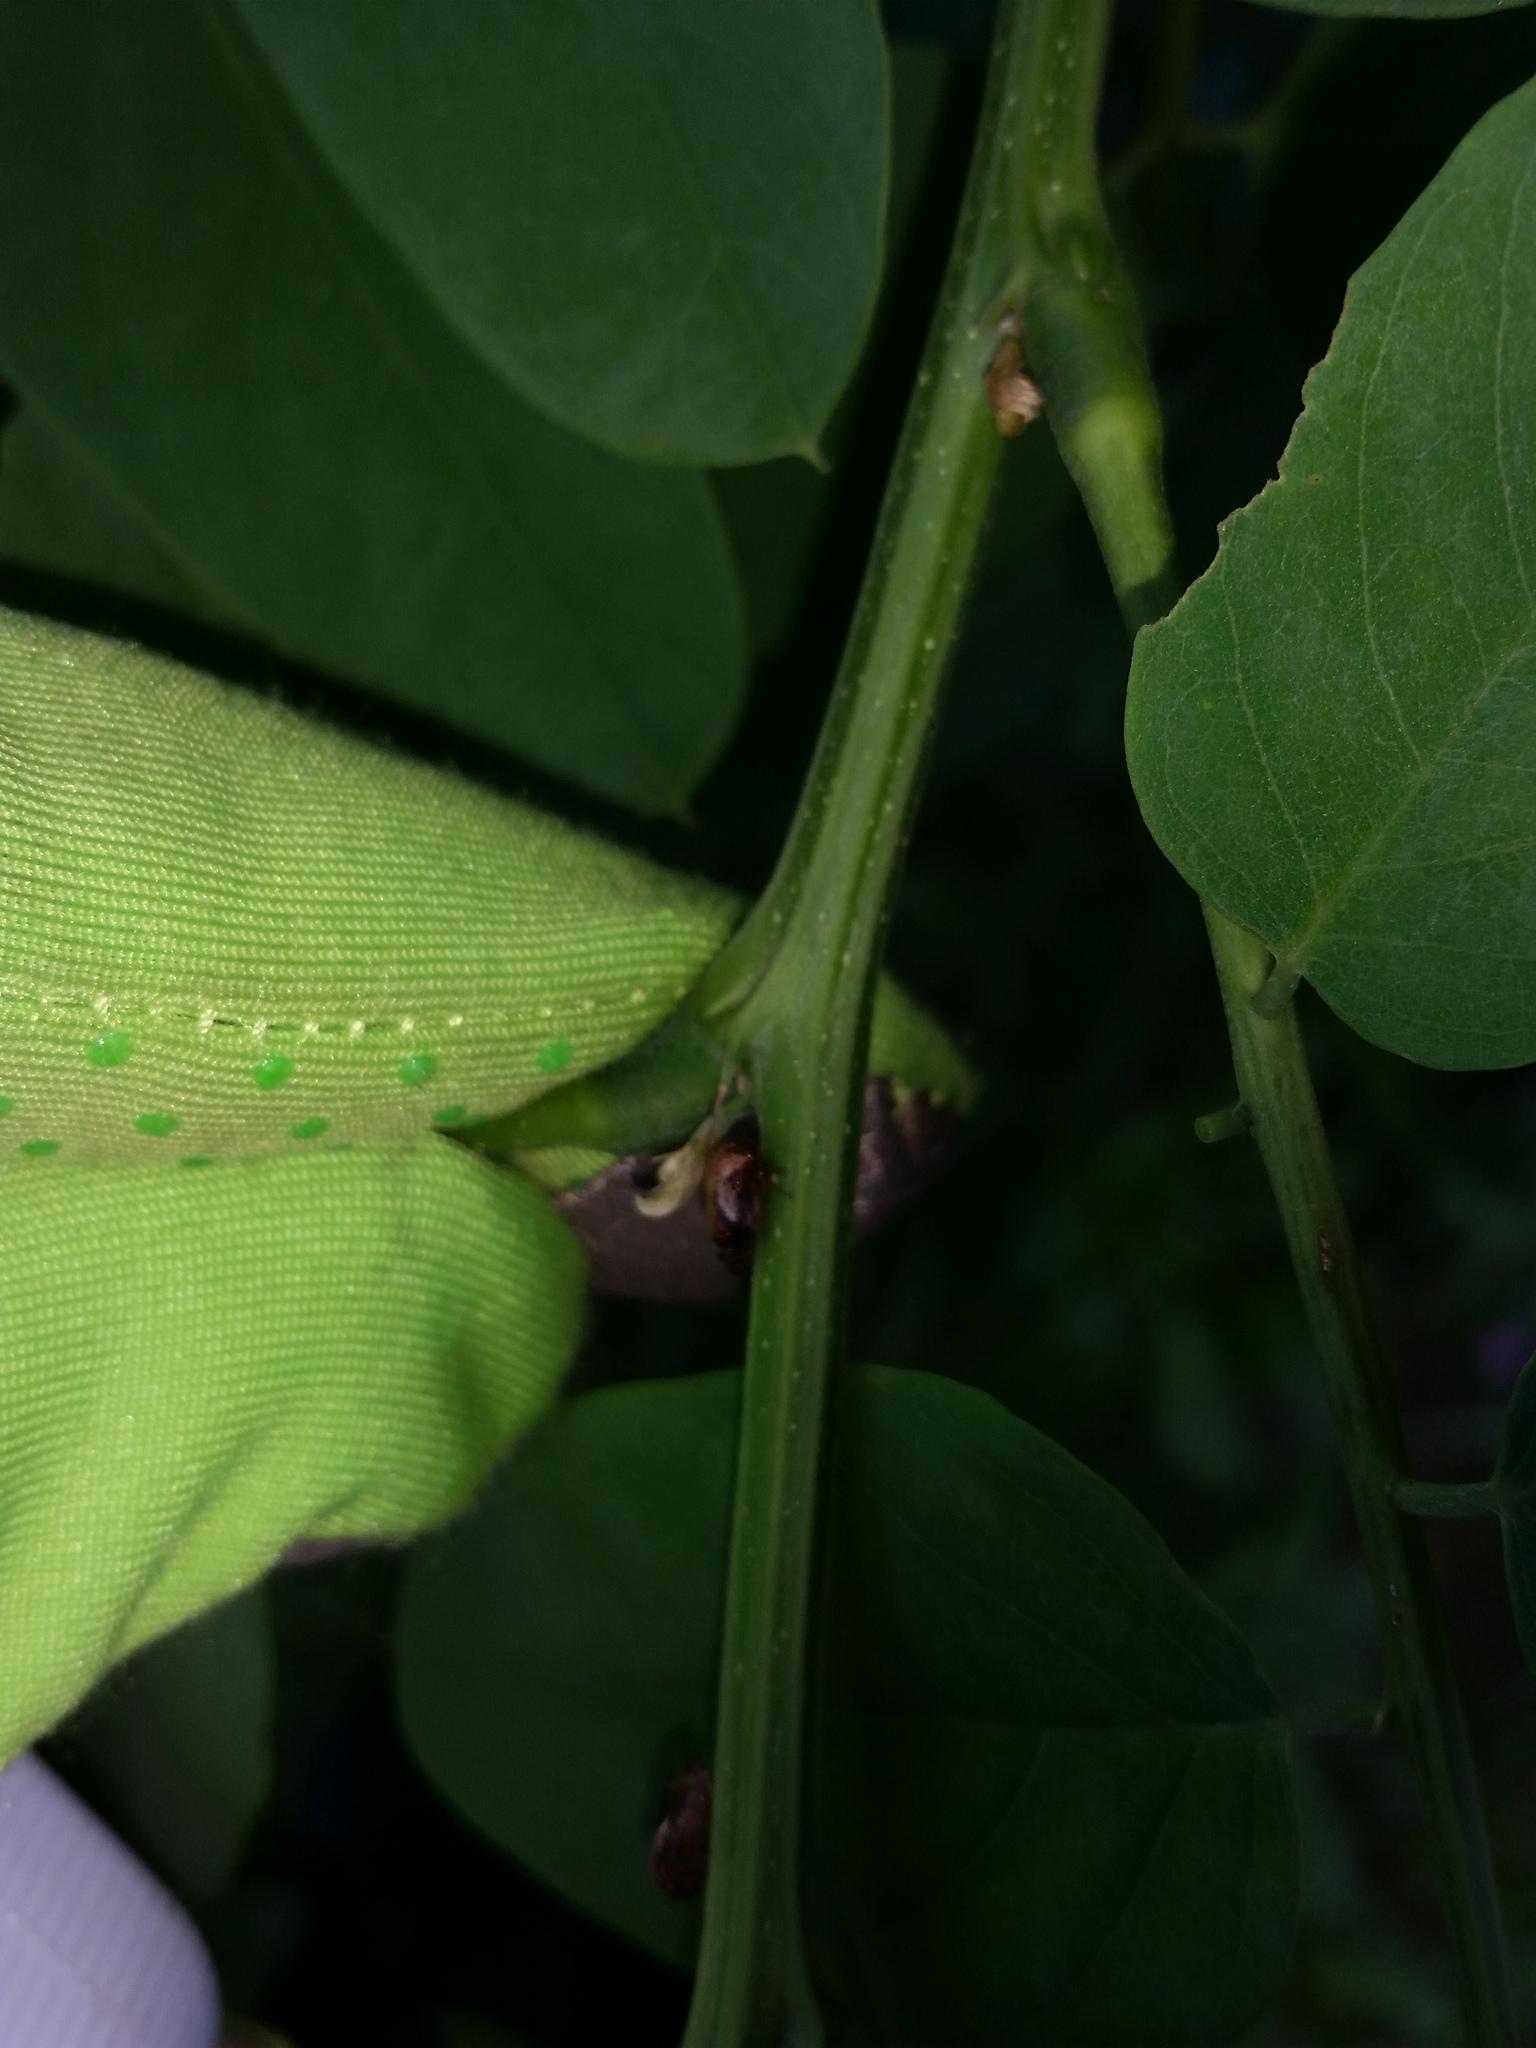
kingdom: Animalia
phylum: Arthropoda
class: Insecta
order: Hemiptera
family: Membracidae
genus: Vanduzea
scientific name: Vanduzea arquata
